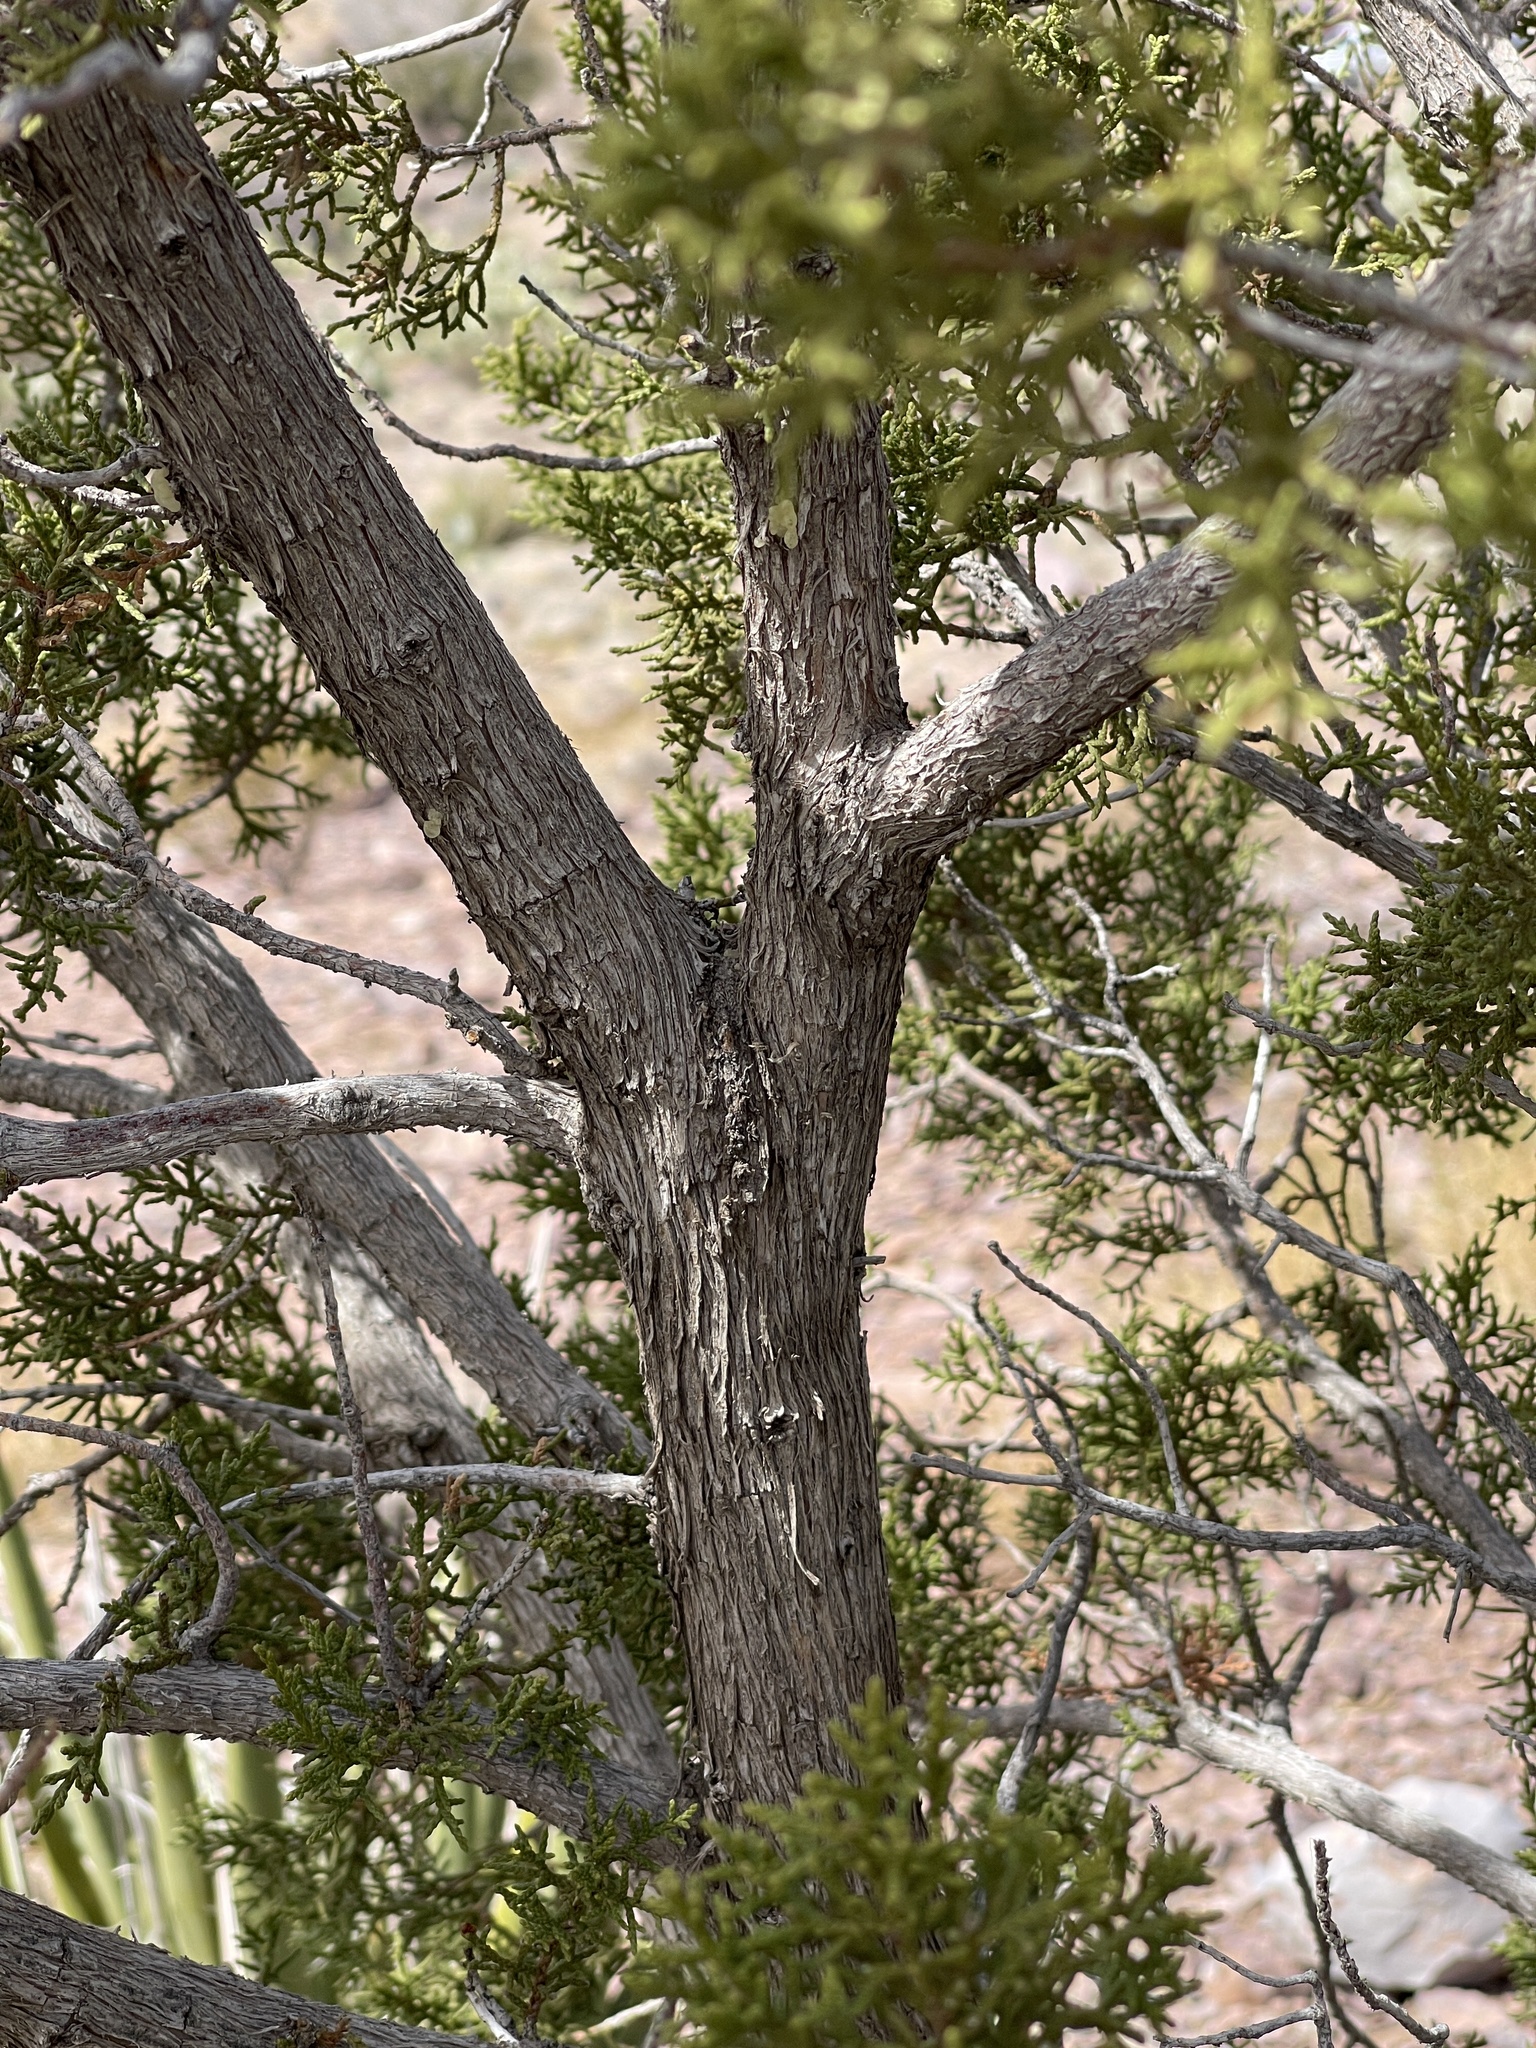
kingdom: Plantae
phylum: Tracheophyta
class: Pinopsida
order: Pinales
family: Cupressaceae
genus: Juniperus
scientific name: Juniperus monosperma
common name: One-seed juniper
